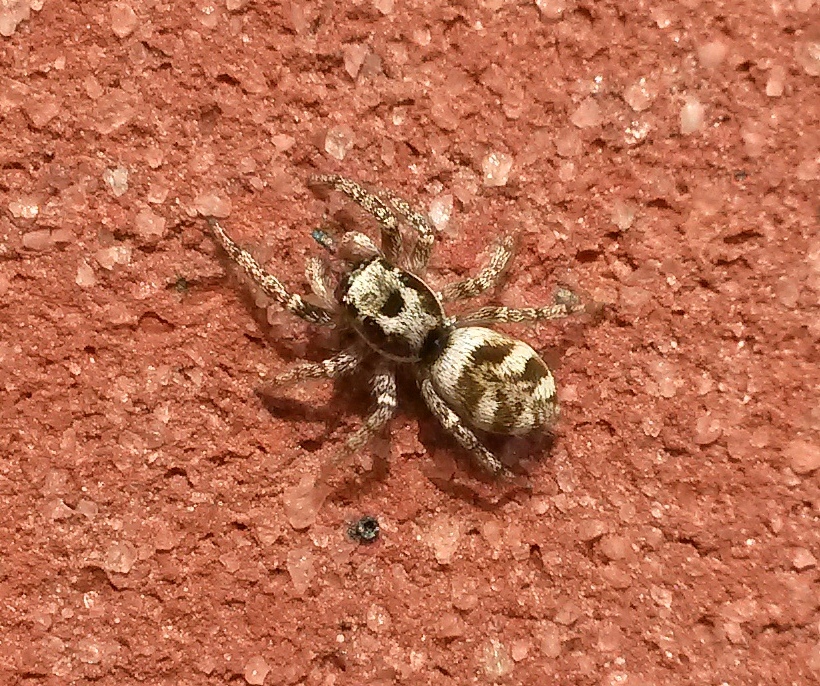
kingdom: Animalia
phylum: Arthropoda
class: Arachnida
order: Araneae
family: Salticidae
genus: Salticus
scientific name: Salticus scenicus
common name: Zebra jumper
